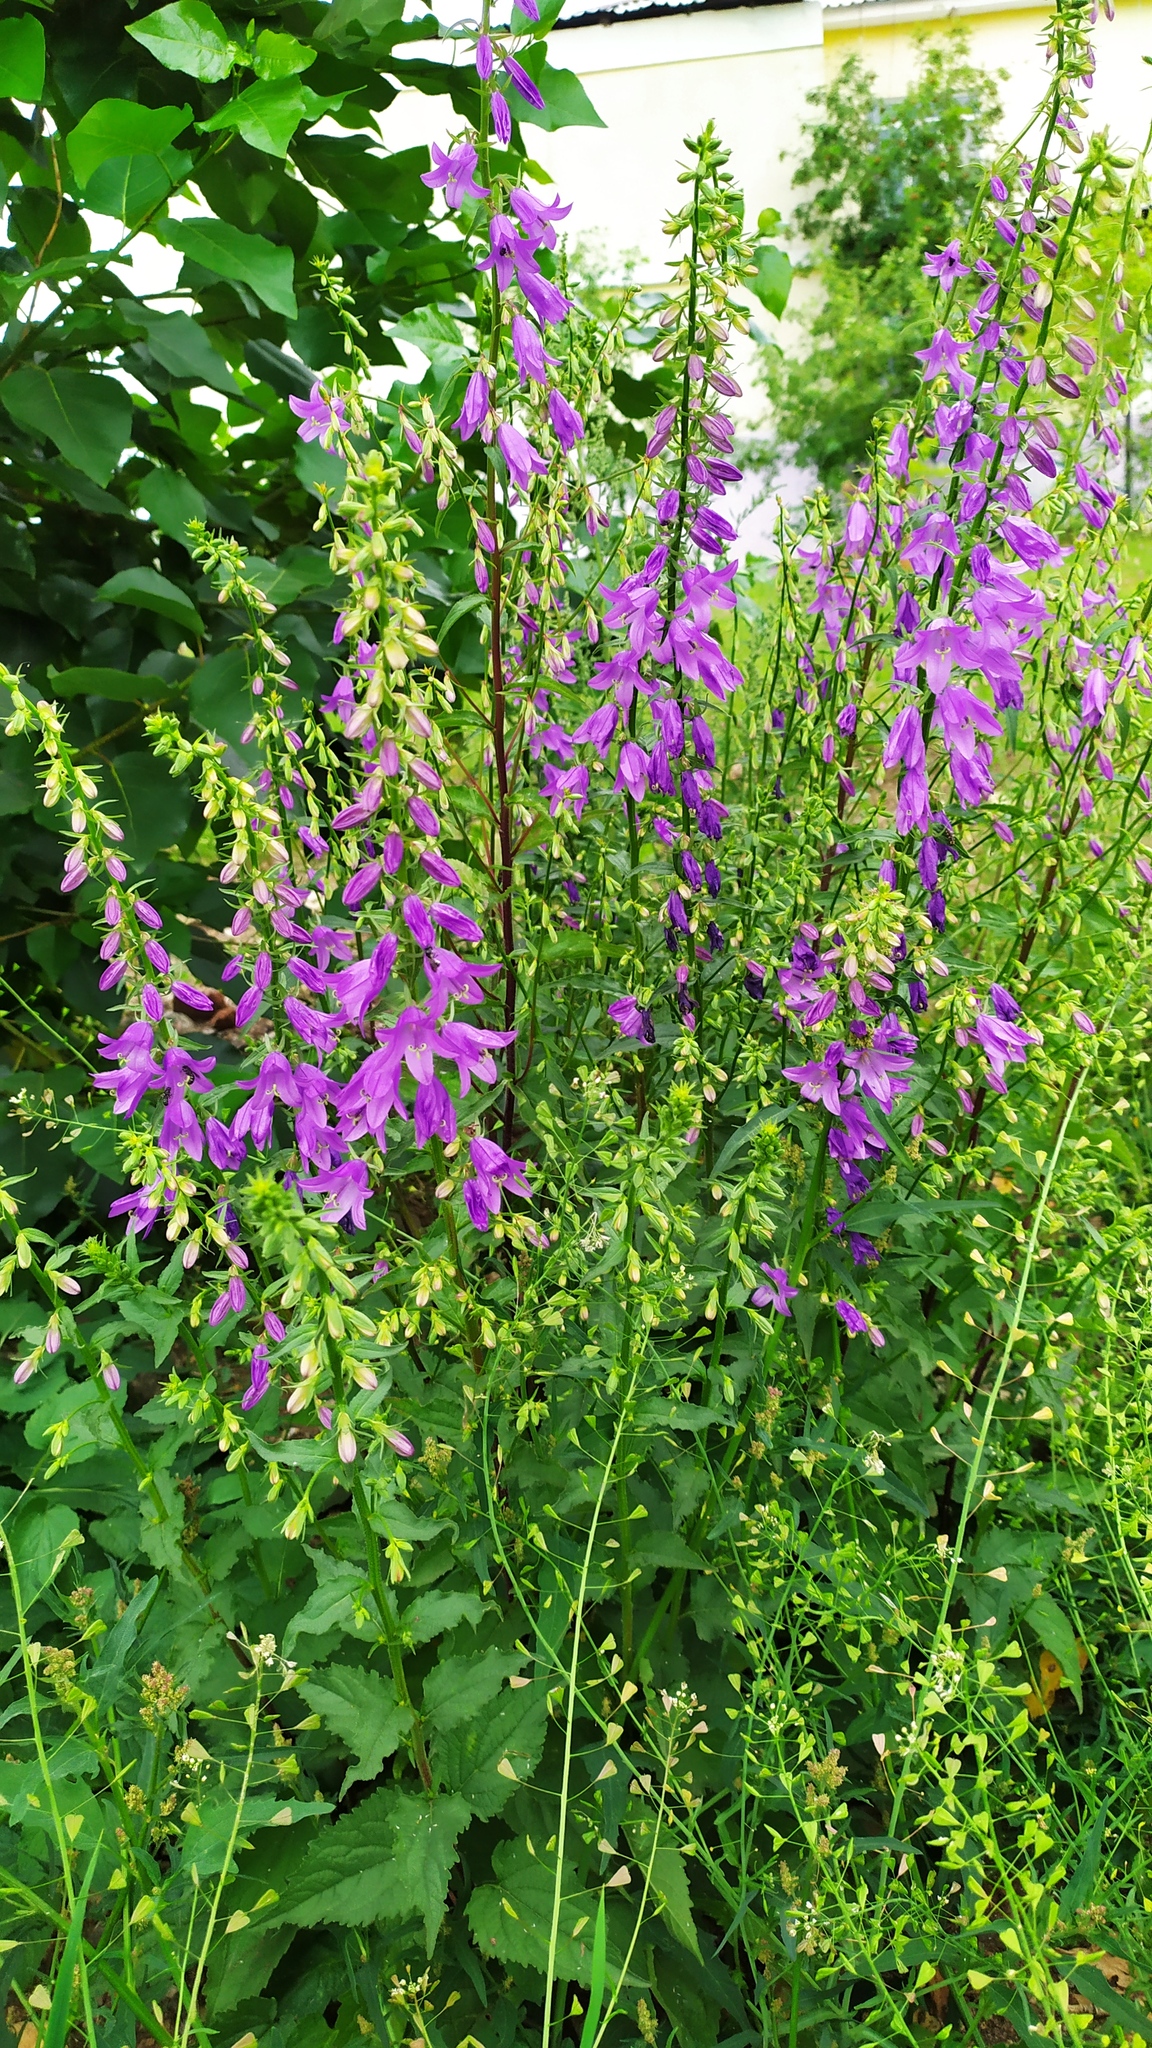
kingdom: Plantae
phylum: Tracheophyta
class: Magnoliopsida
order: Asterales
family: Campanulaceae
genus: Campanula
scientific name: Campanula rapunculoides
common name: Creeping bellflower
